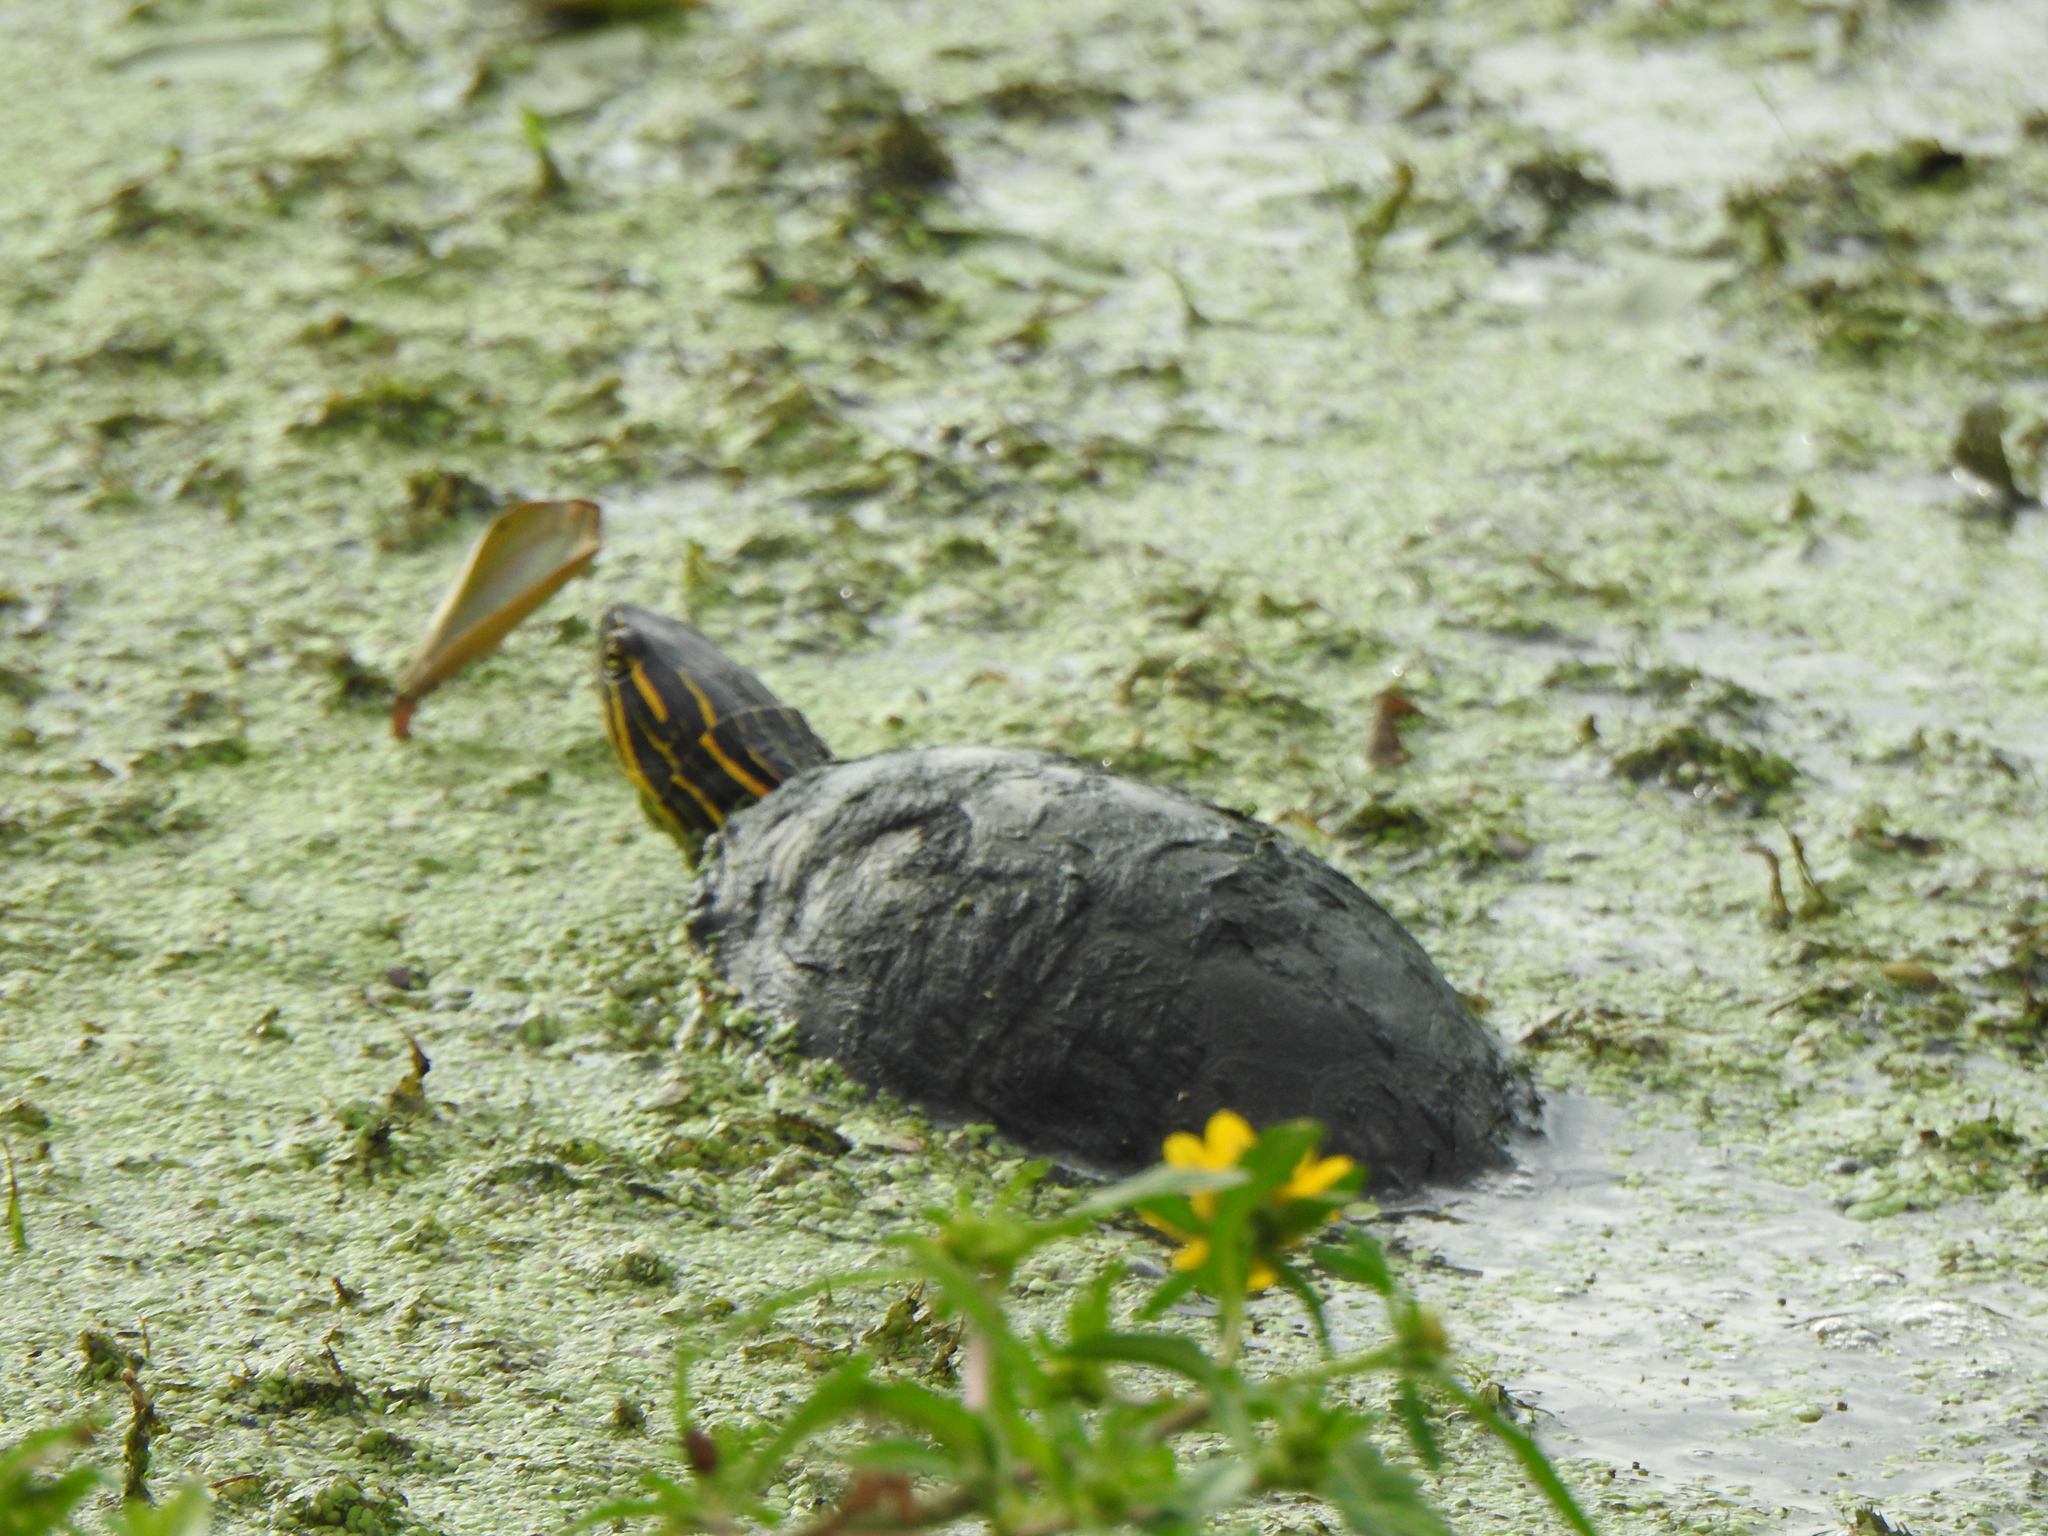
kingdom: Animalia
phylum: Chordata
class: Testudines
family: Emydidae
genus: Chrysemys
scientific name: Chrysemys picta
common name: Painted turtle
